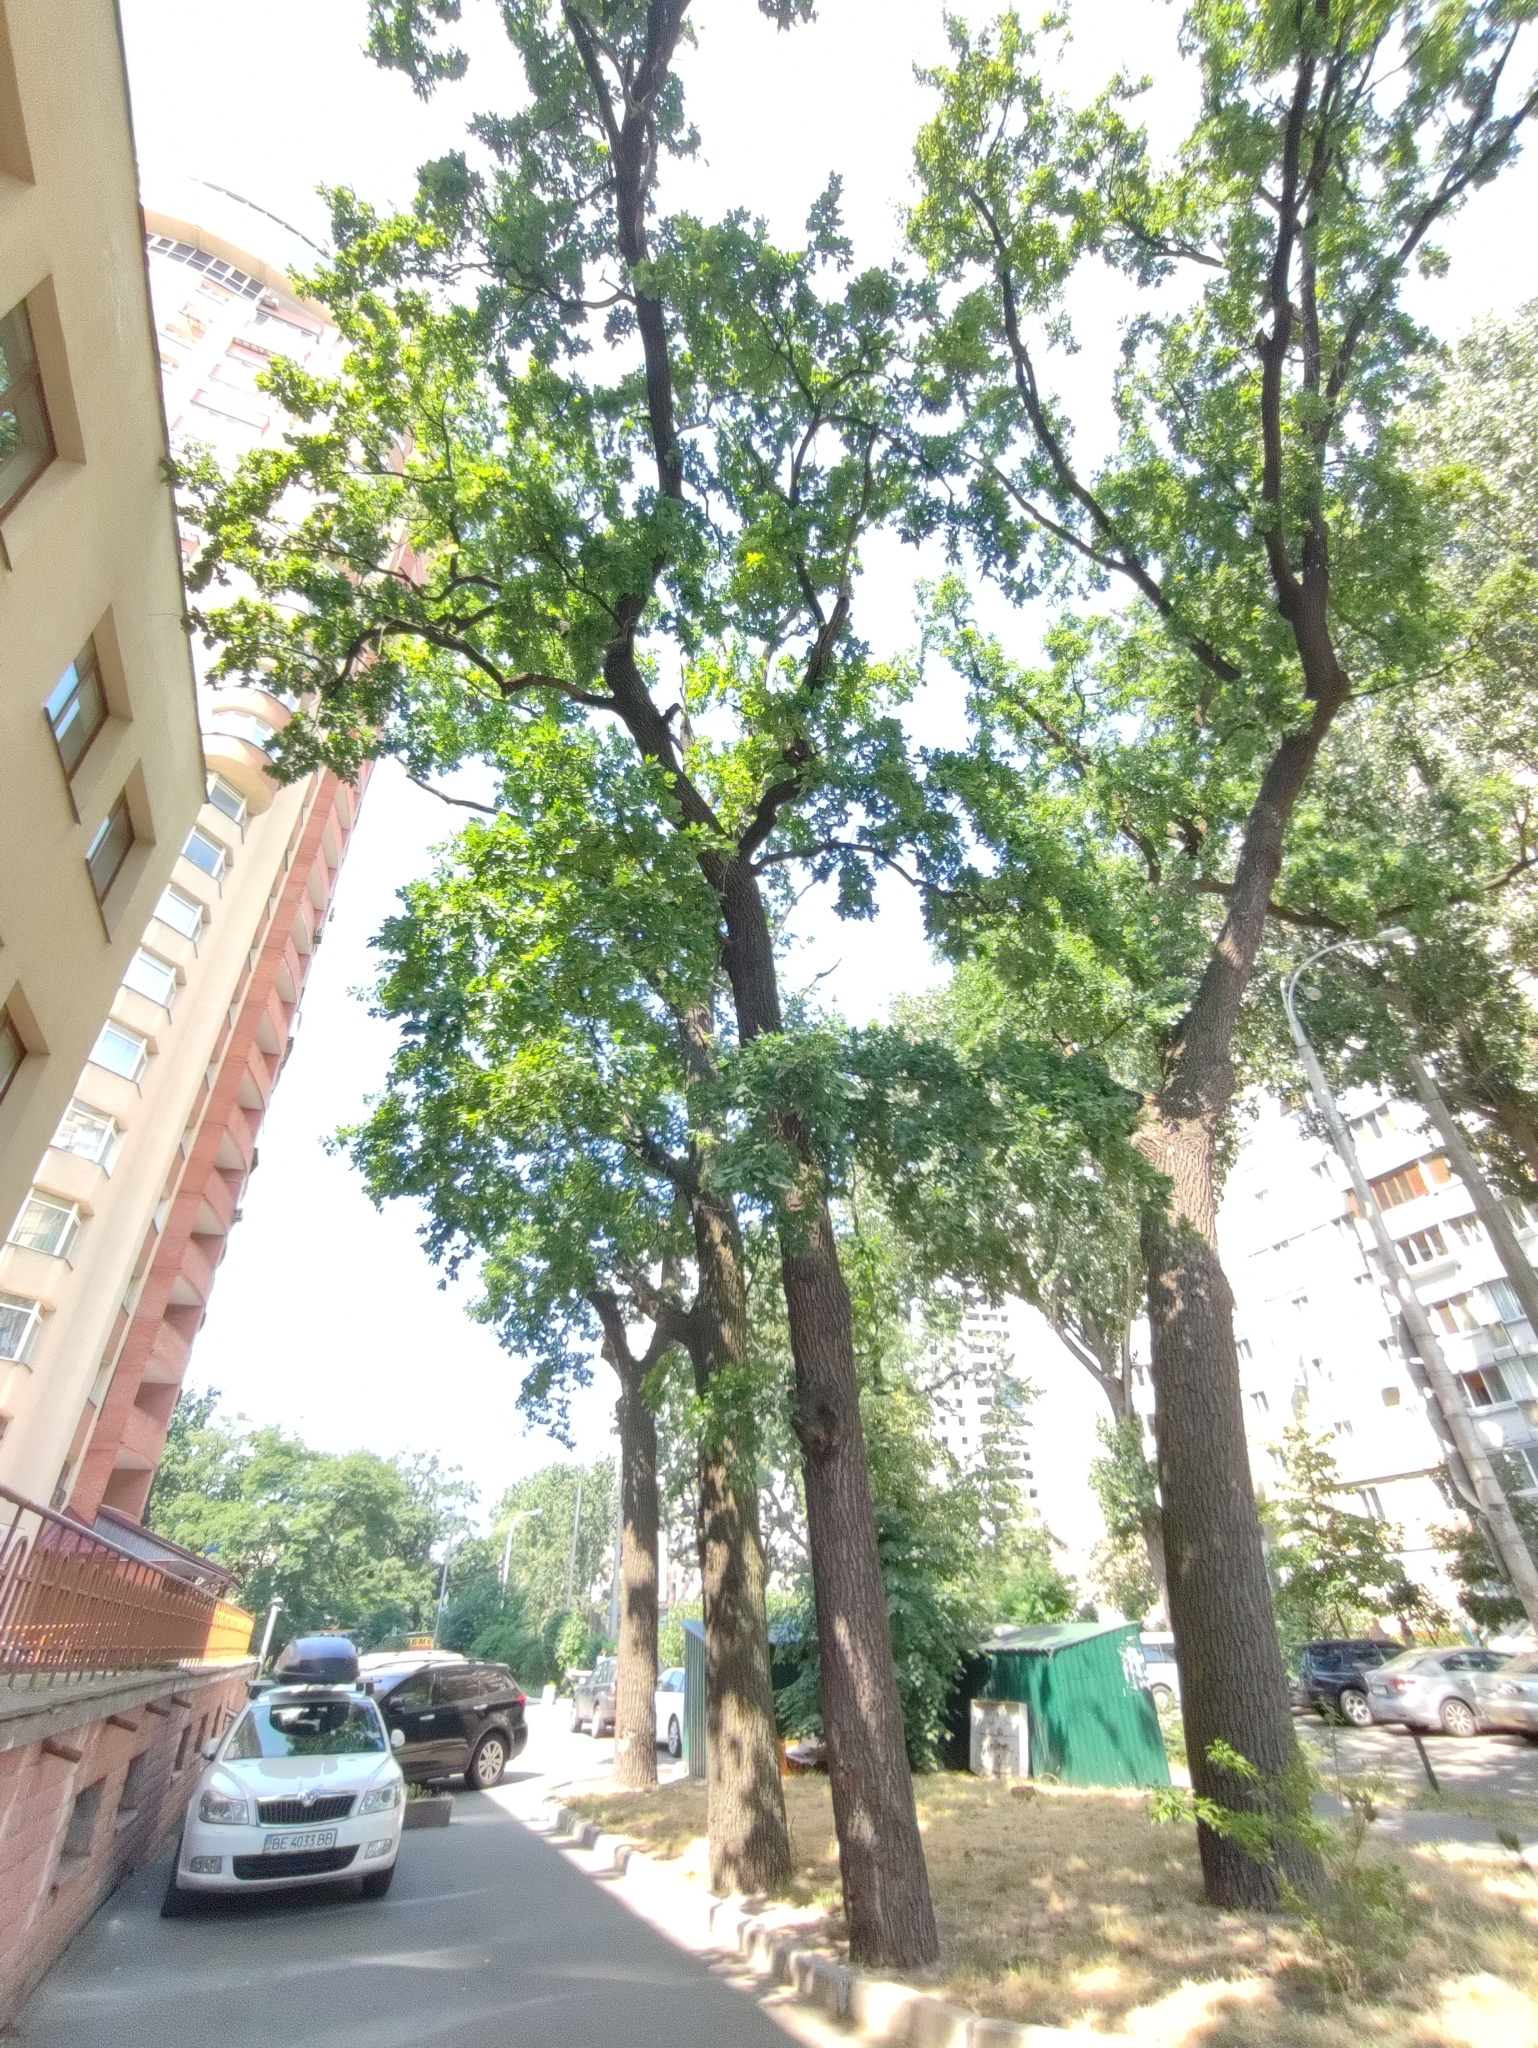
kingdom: Plantae
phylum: Tracheophyta
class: Magnoliopsida
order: Fagales
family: Fagaceae
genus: Quercus
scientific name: Quercus robur
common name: Pedunculate oak
